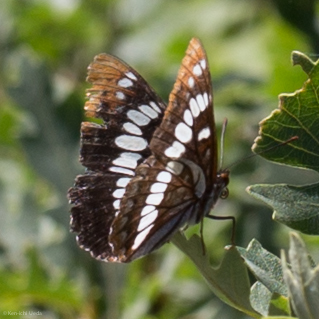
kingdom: Animalia
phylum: Arthropoda
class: Insecta
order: Lepidoptera
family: Nymphalidae
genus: Limenitis
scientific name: Limenitis lorquini
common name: Lorquin's admiral
